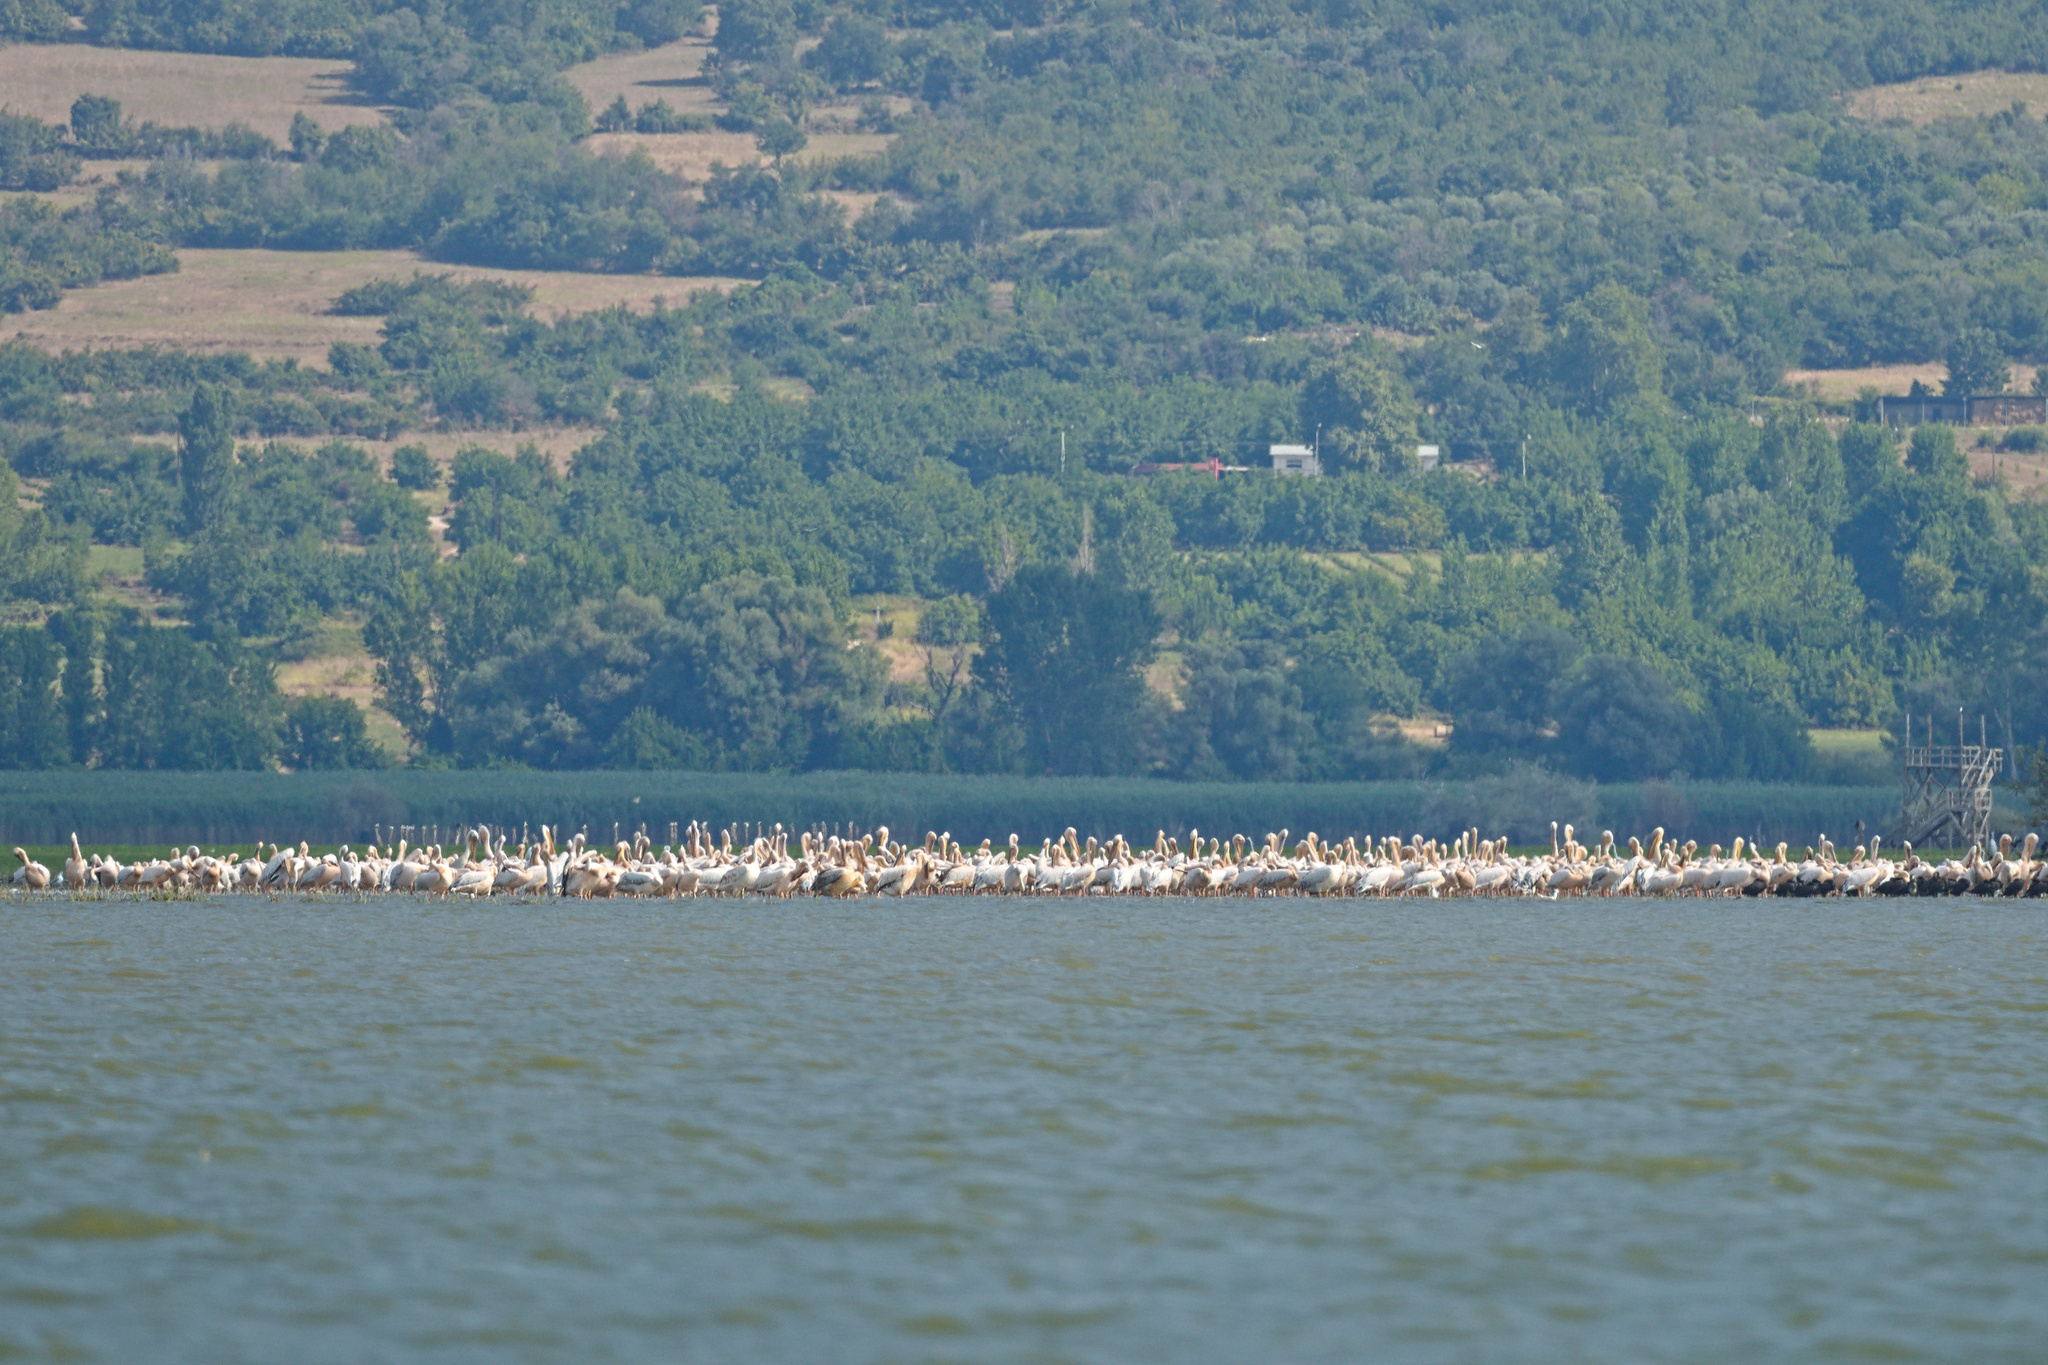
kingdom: Animalia
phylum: Chordata
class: Aves
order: Pelecaniformes
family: Pelecanidae
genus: Pelecanus
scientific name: Pelecanus onocrotalus
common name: Great white pelican
